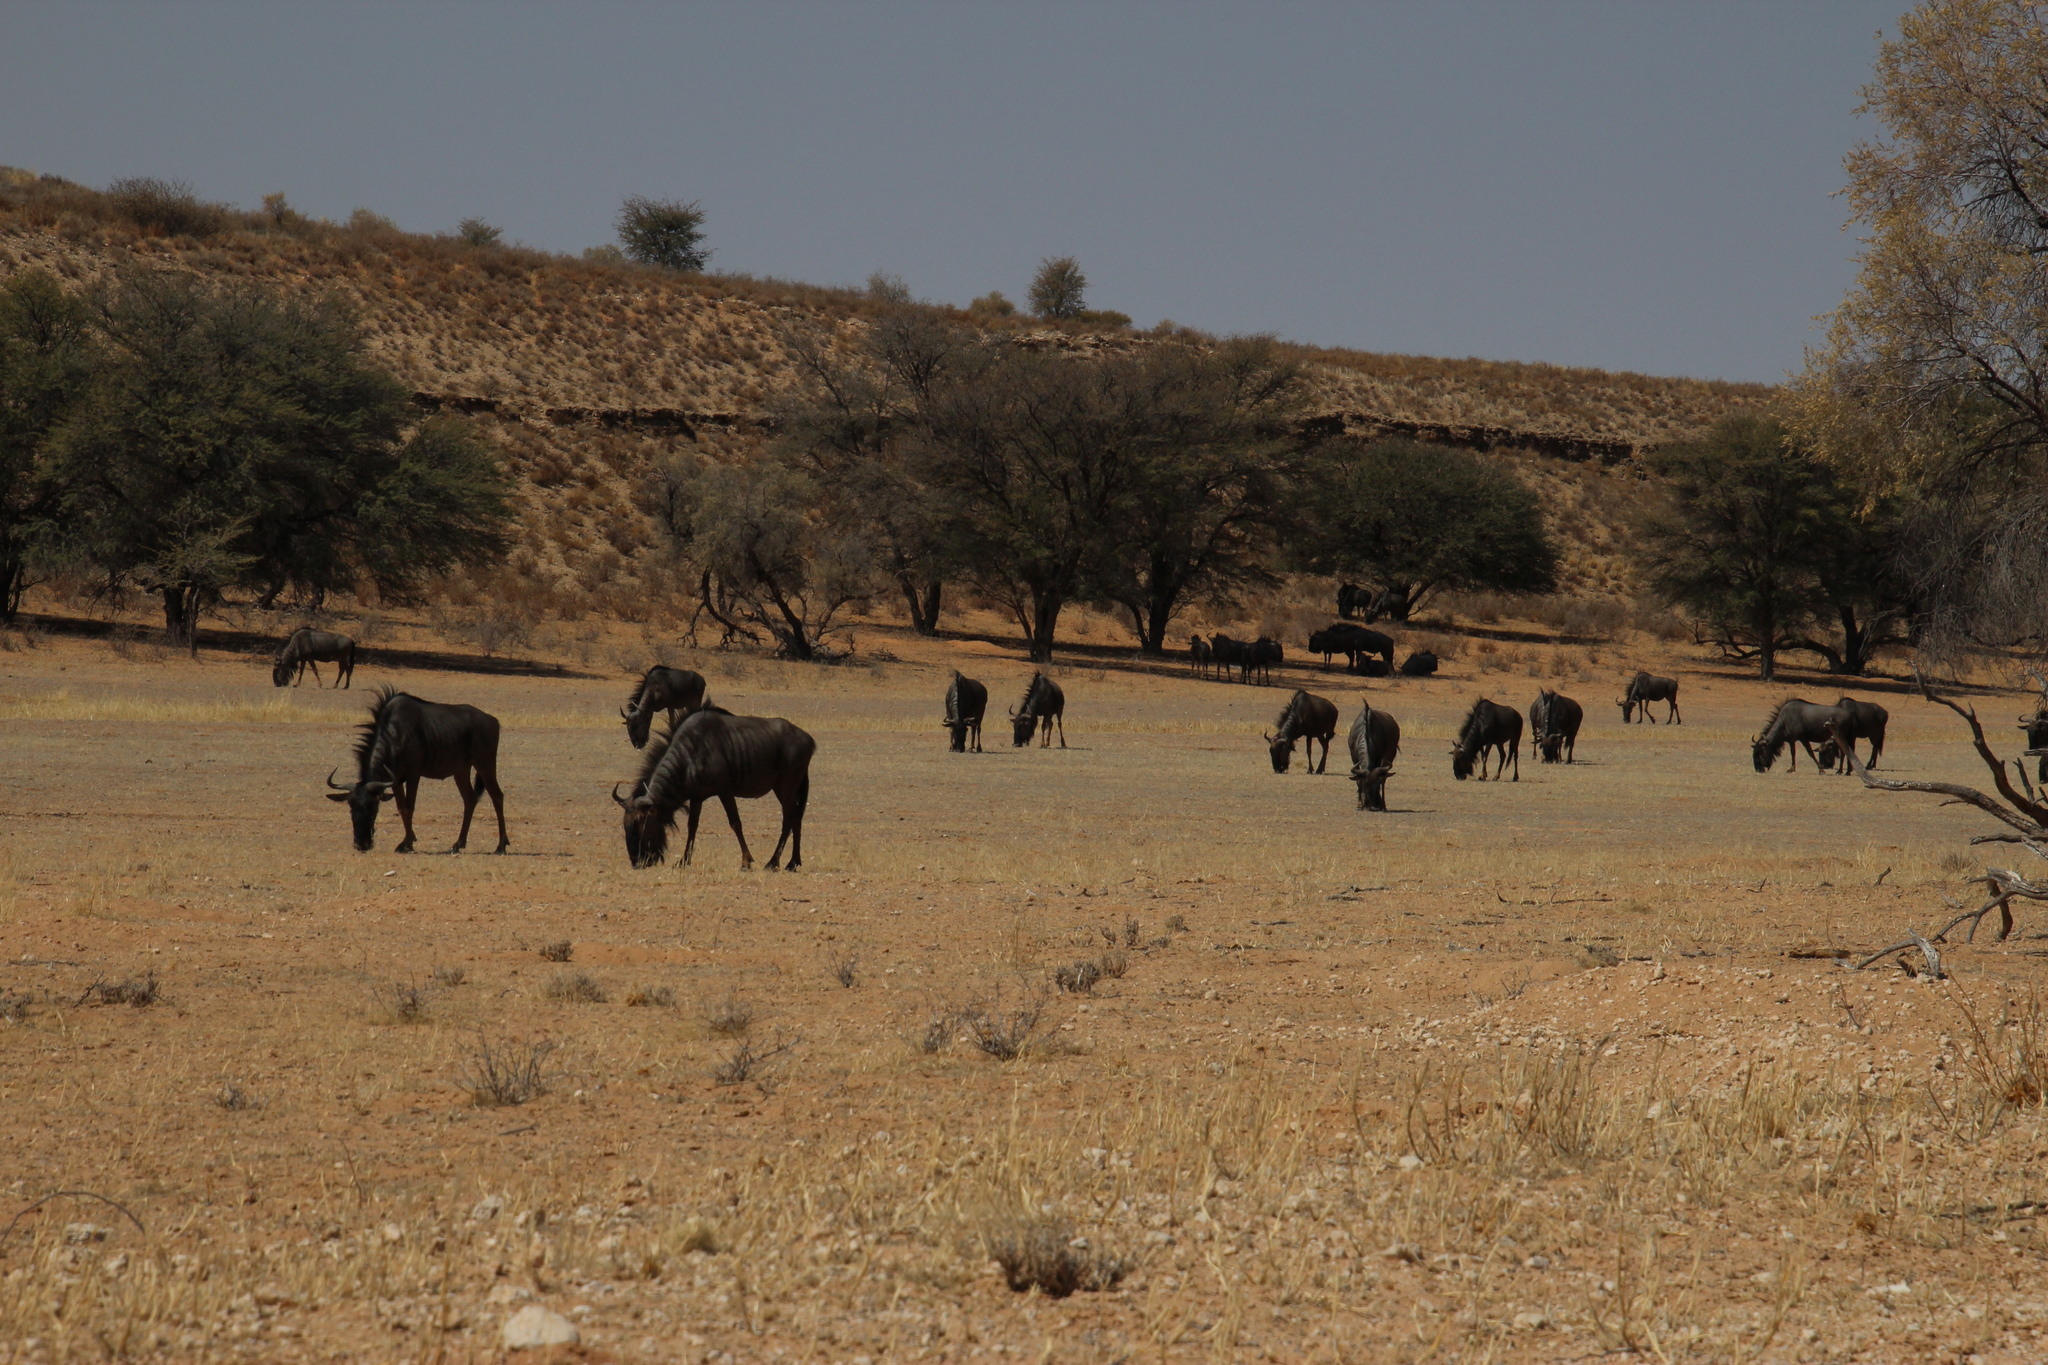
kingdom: Animalia
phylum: Chordata
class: Mammalia
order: Artiodactyla
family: Bovidae
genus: Connochaetes
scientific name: Connochaetes taurinus
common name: Blue wildebeest
